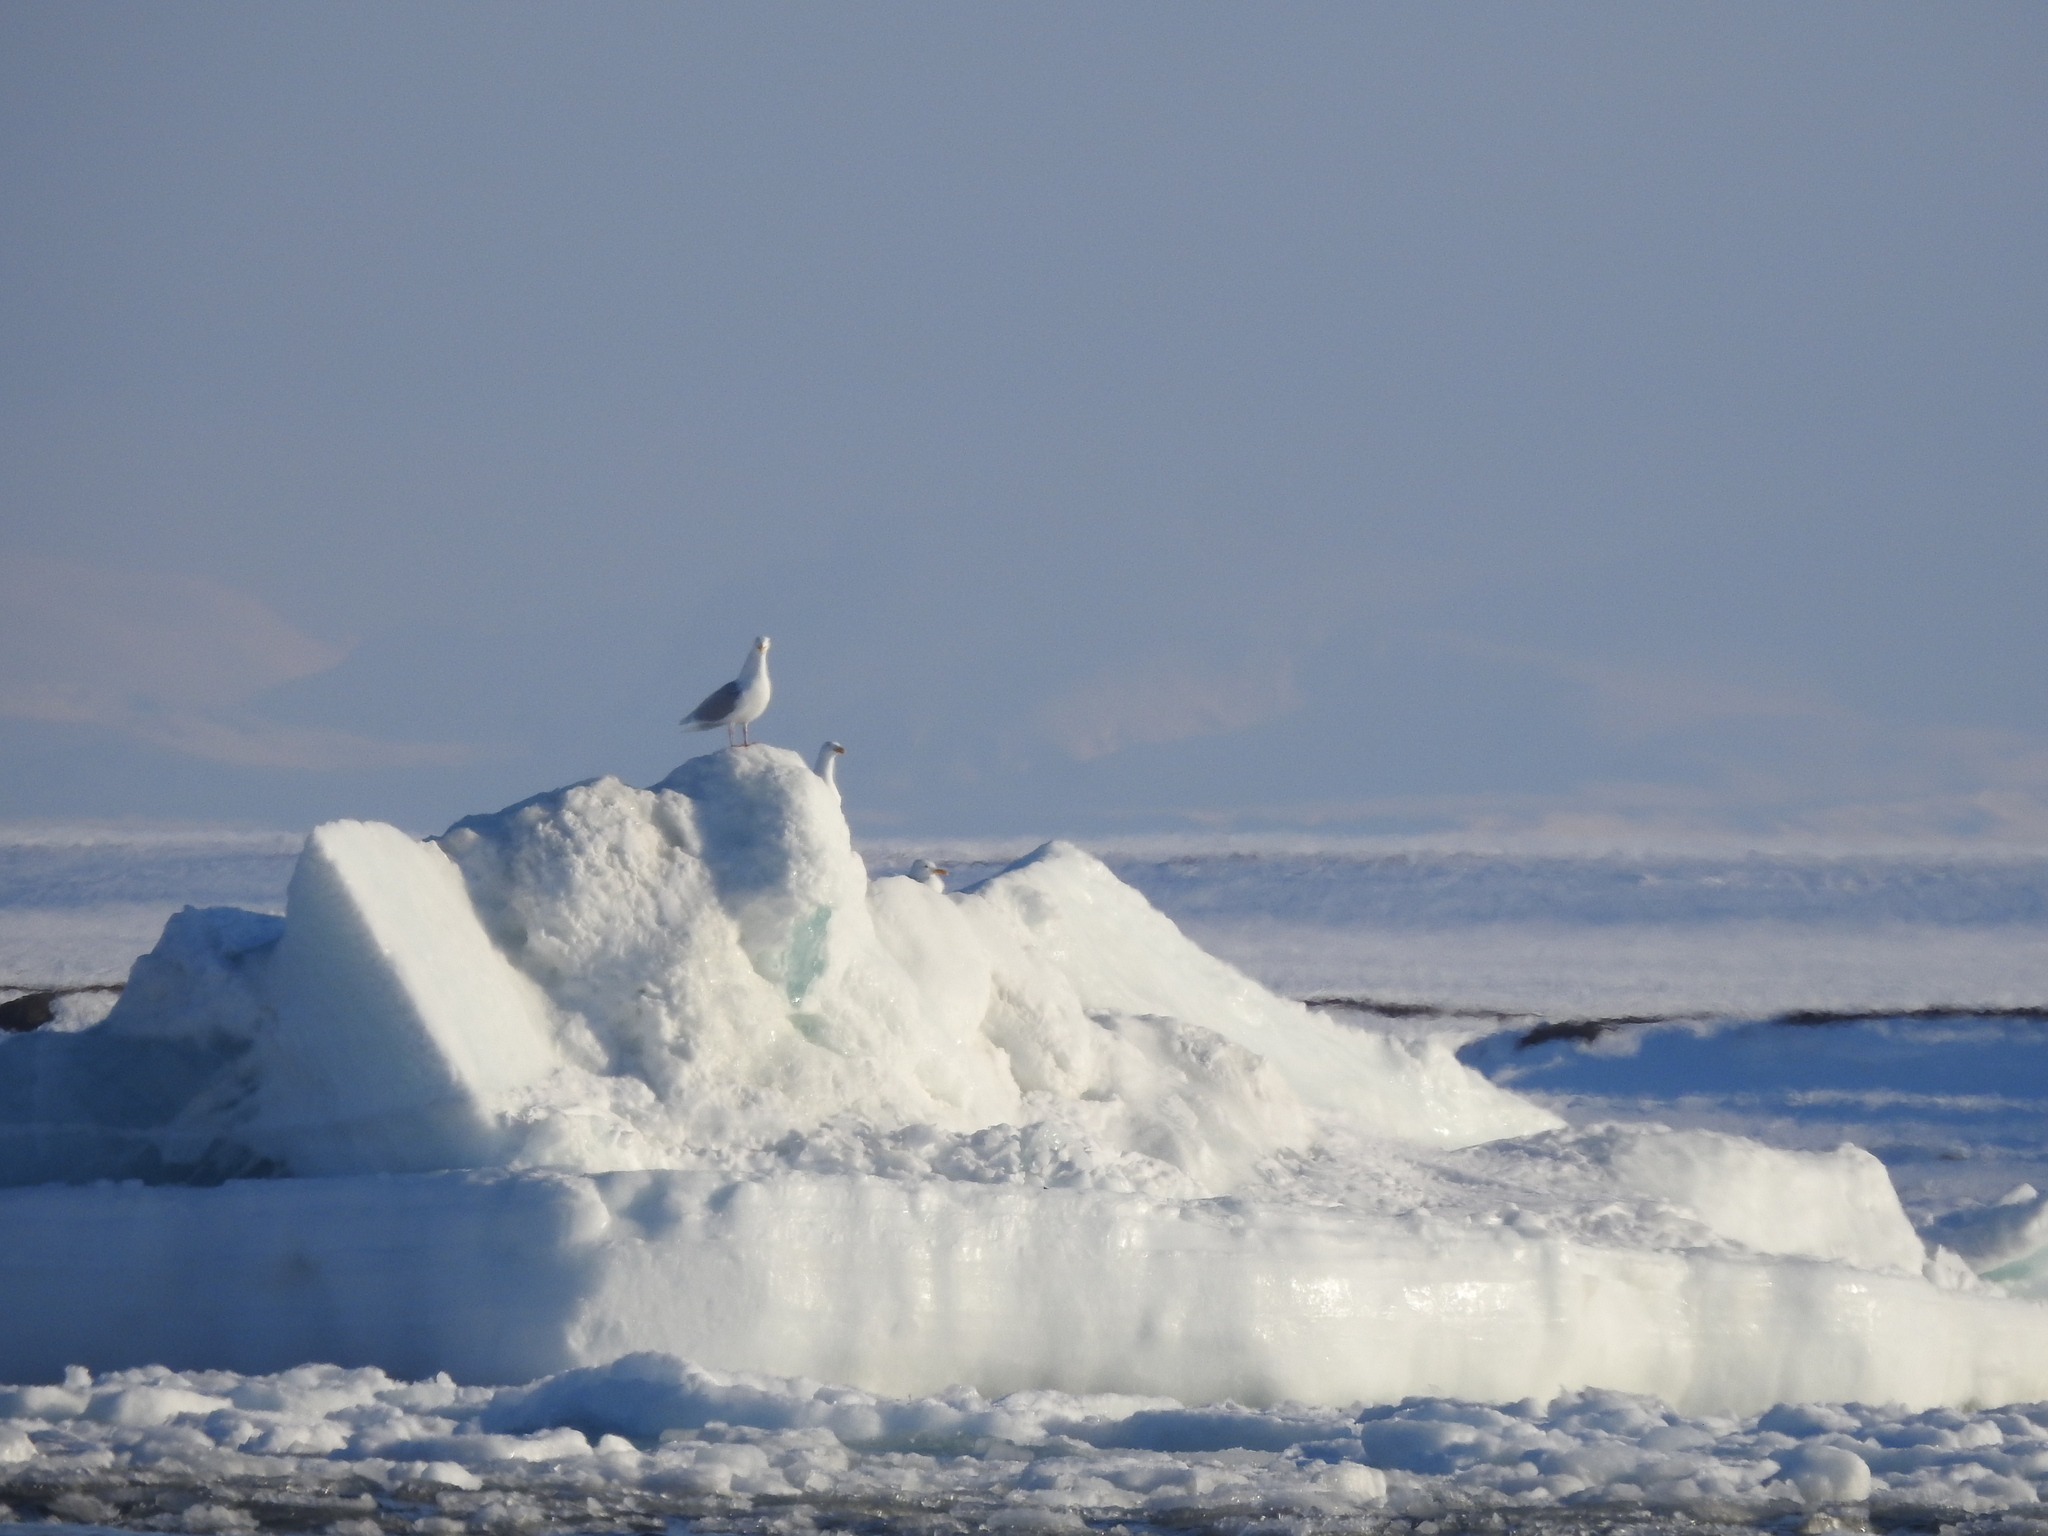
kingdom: Animalia
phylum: Chordata
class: Aves
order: Charadriiformes
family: Laridae
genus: Larus
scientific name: Larus hyperboreus
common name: Glaucous gull
